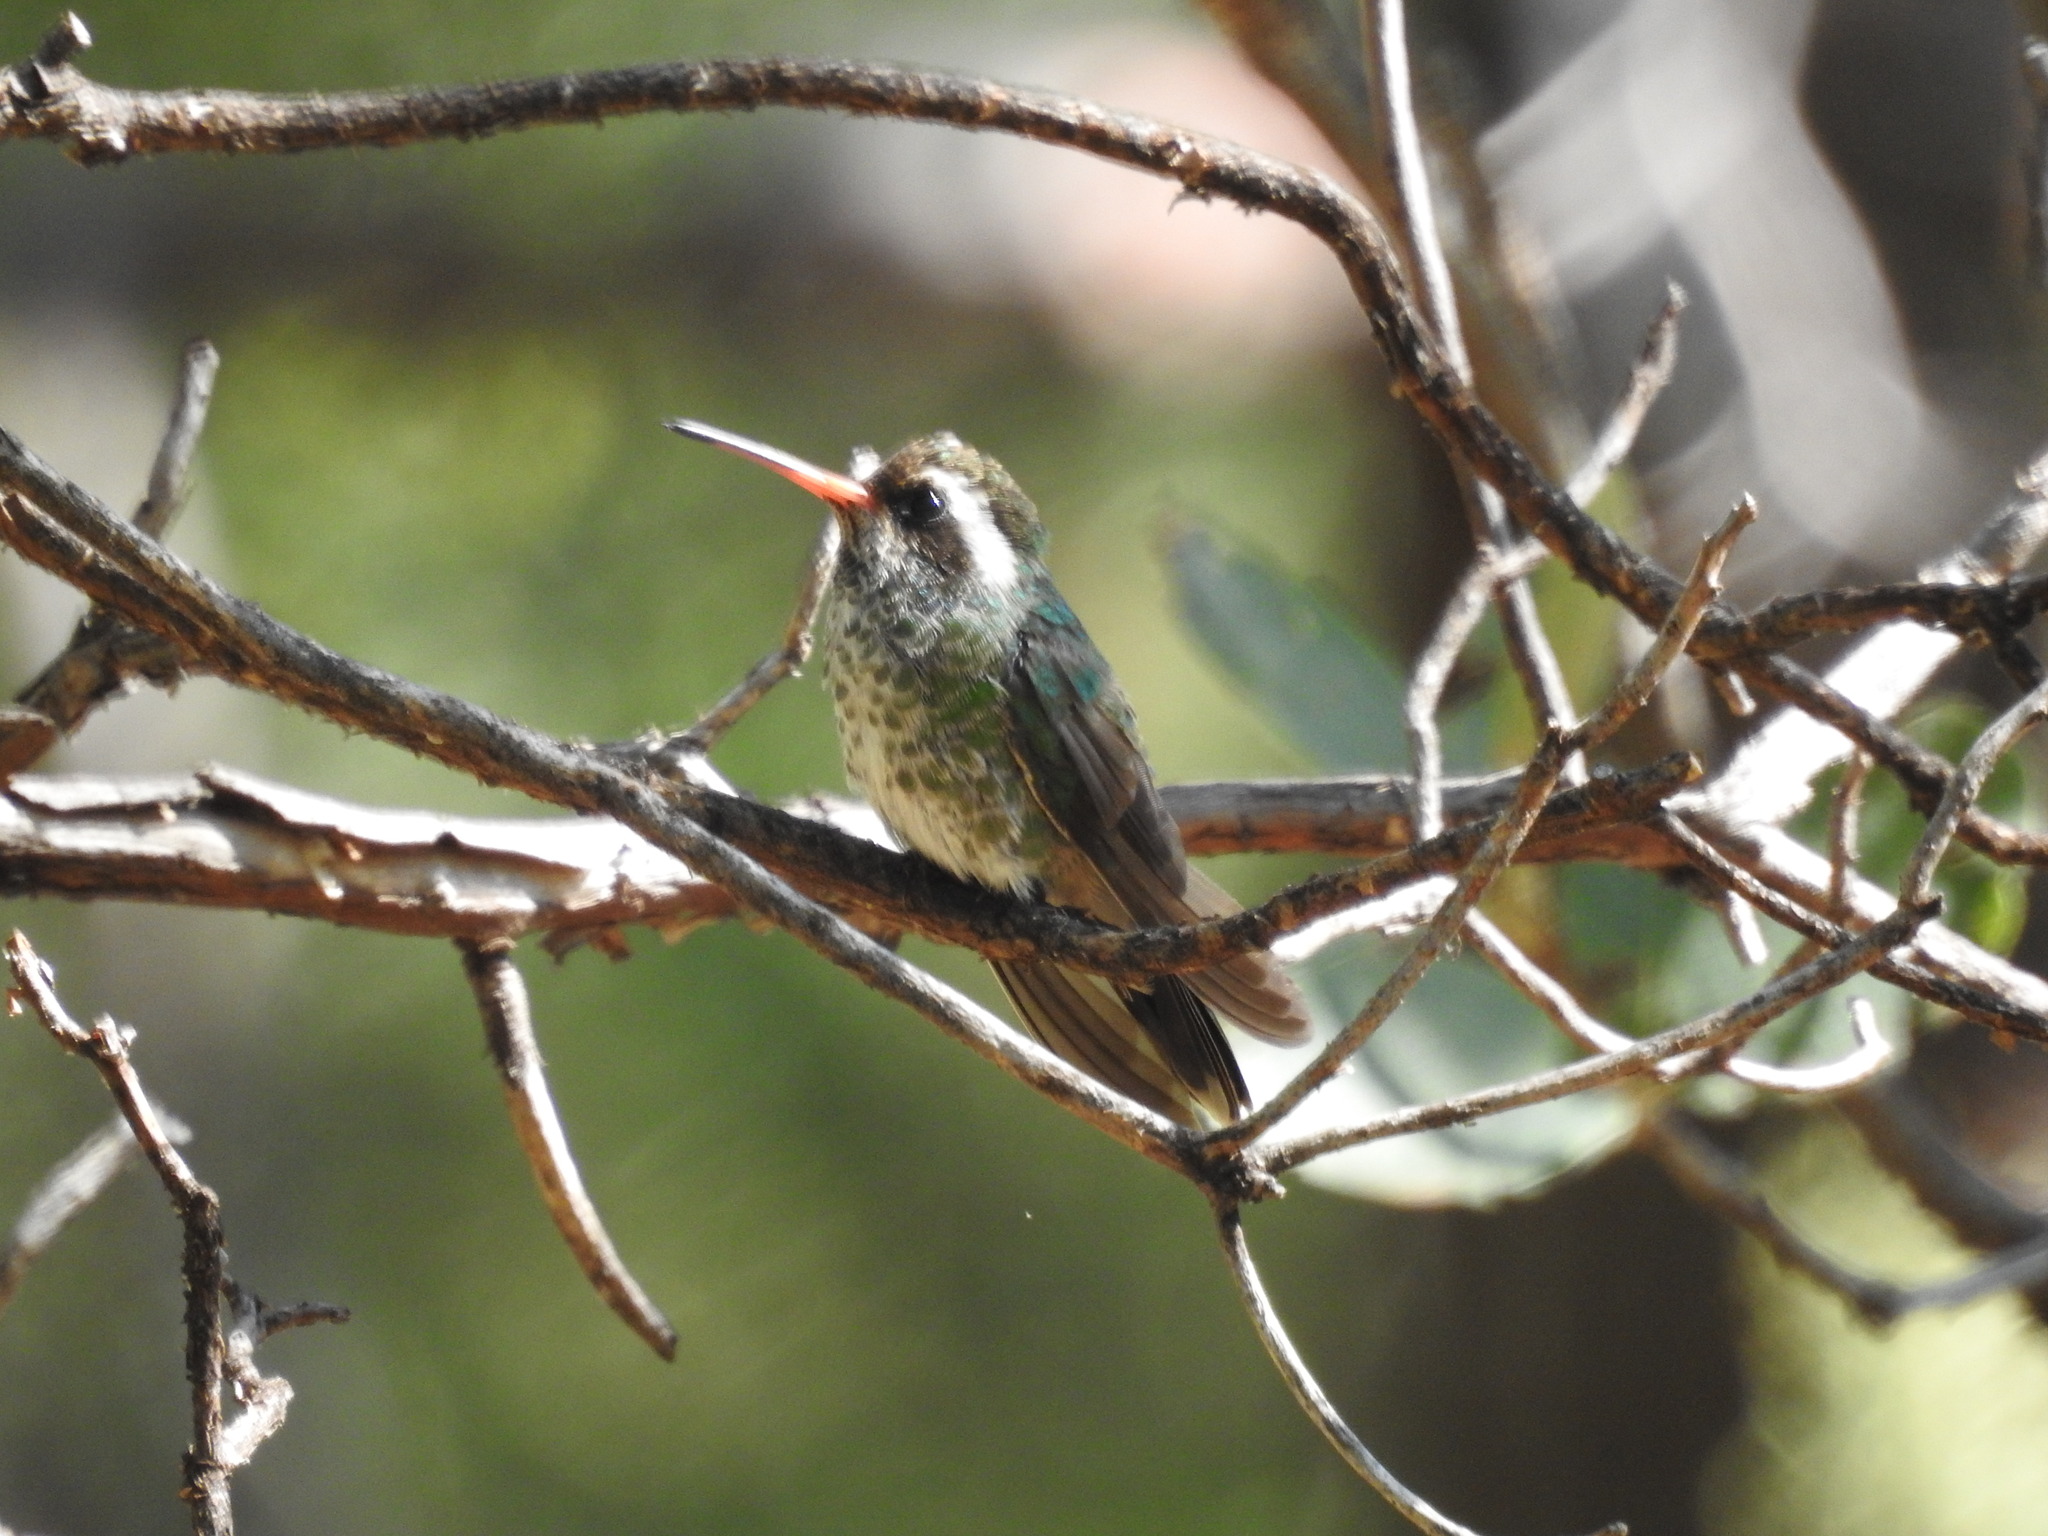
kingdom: Animalia
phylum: Chordata
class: Aves
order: Apodiformes
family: Trochilidae
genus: Basilinna
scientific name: Basilinna leucotis
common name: White-eared hummingbird
